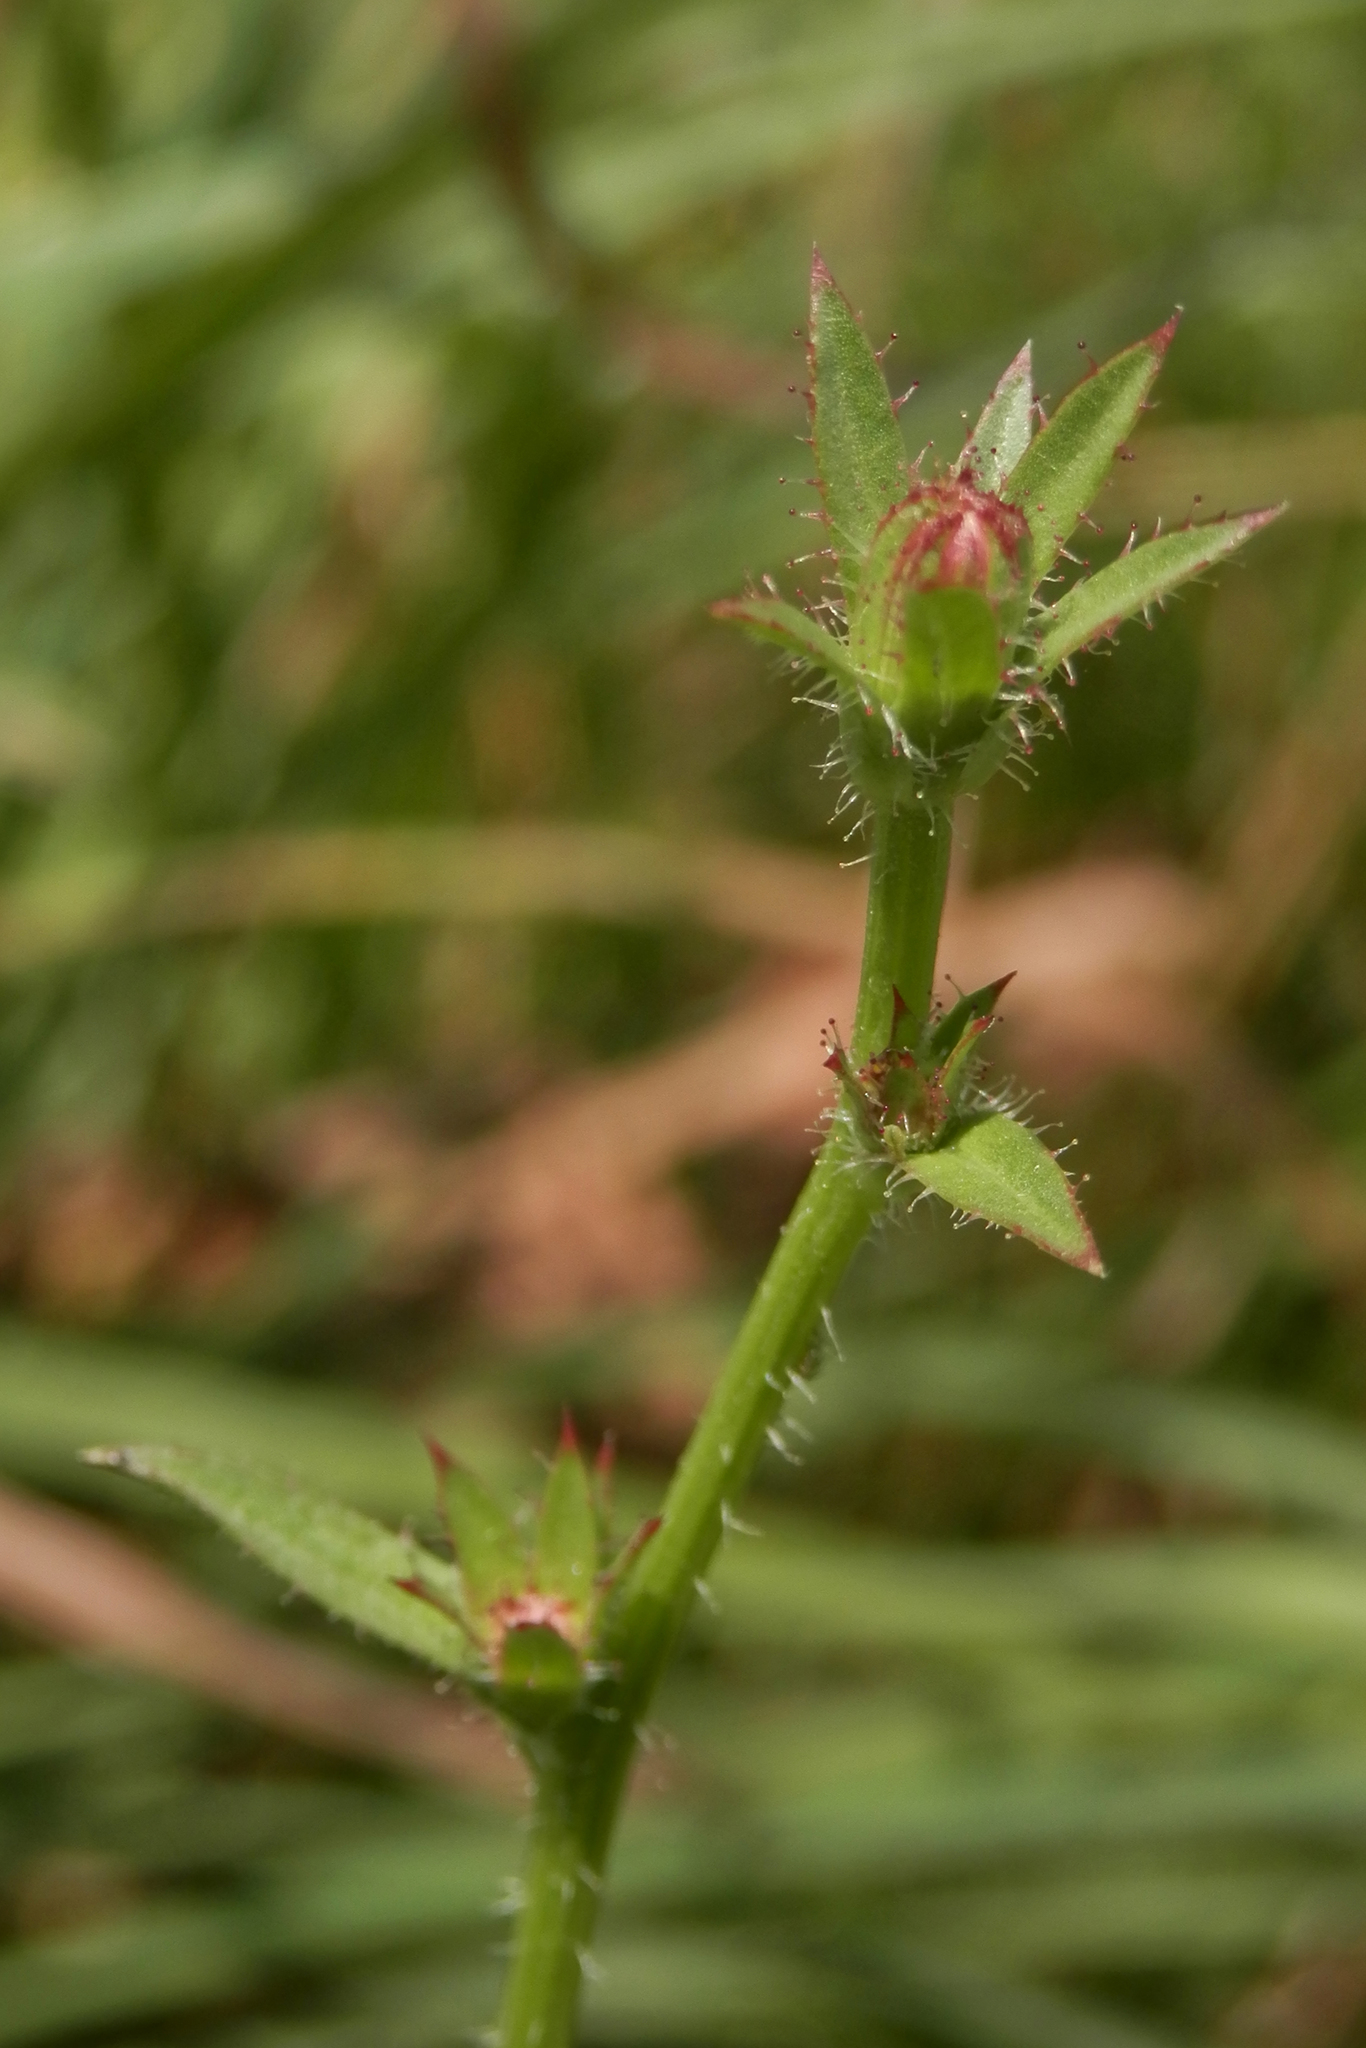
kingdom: Plantae
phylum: Tracheophyta
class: Magnoliopsida
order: Asterales
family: Asteraceae
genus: Cichorium
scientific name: Cichorium intybus
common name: Chicory
